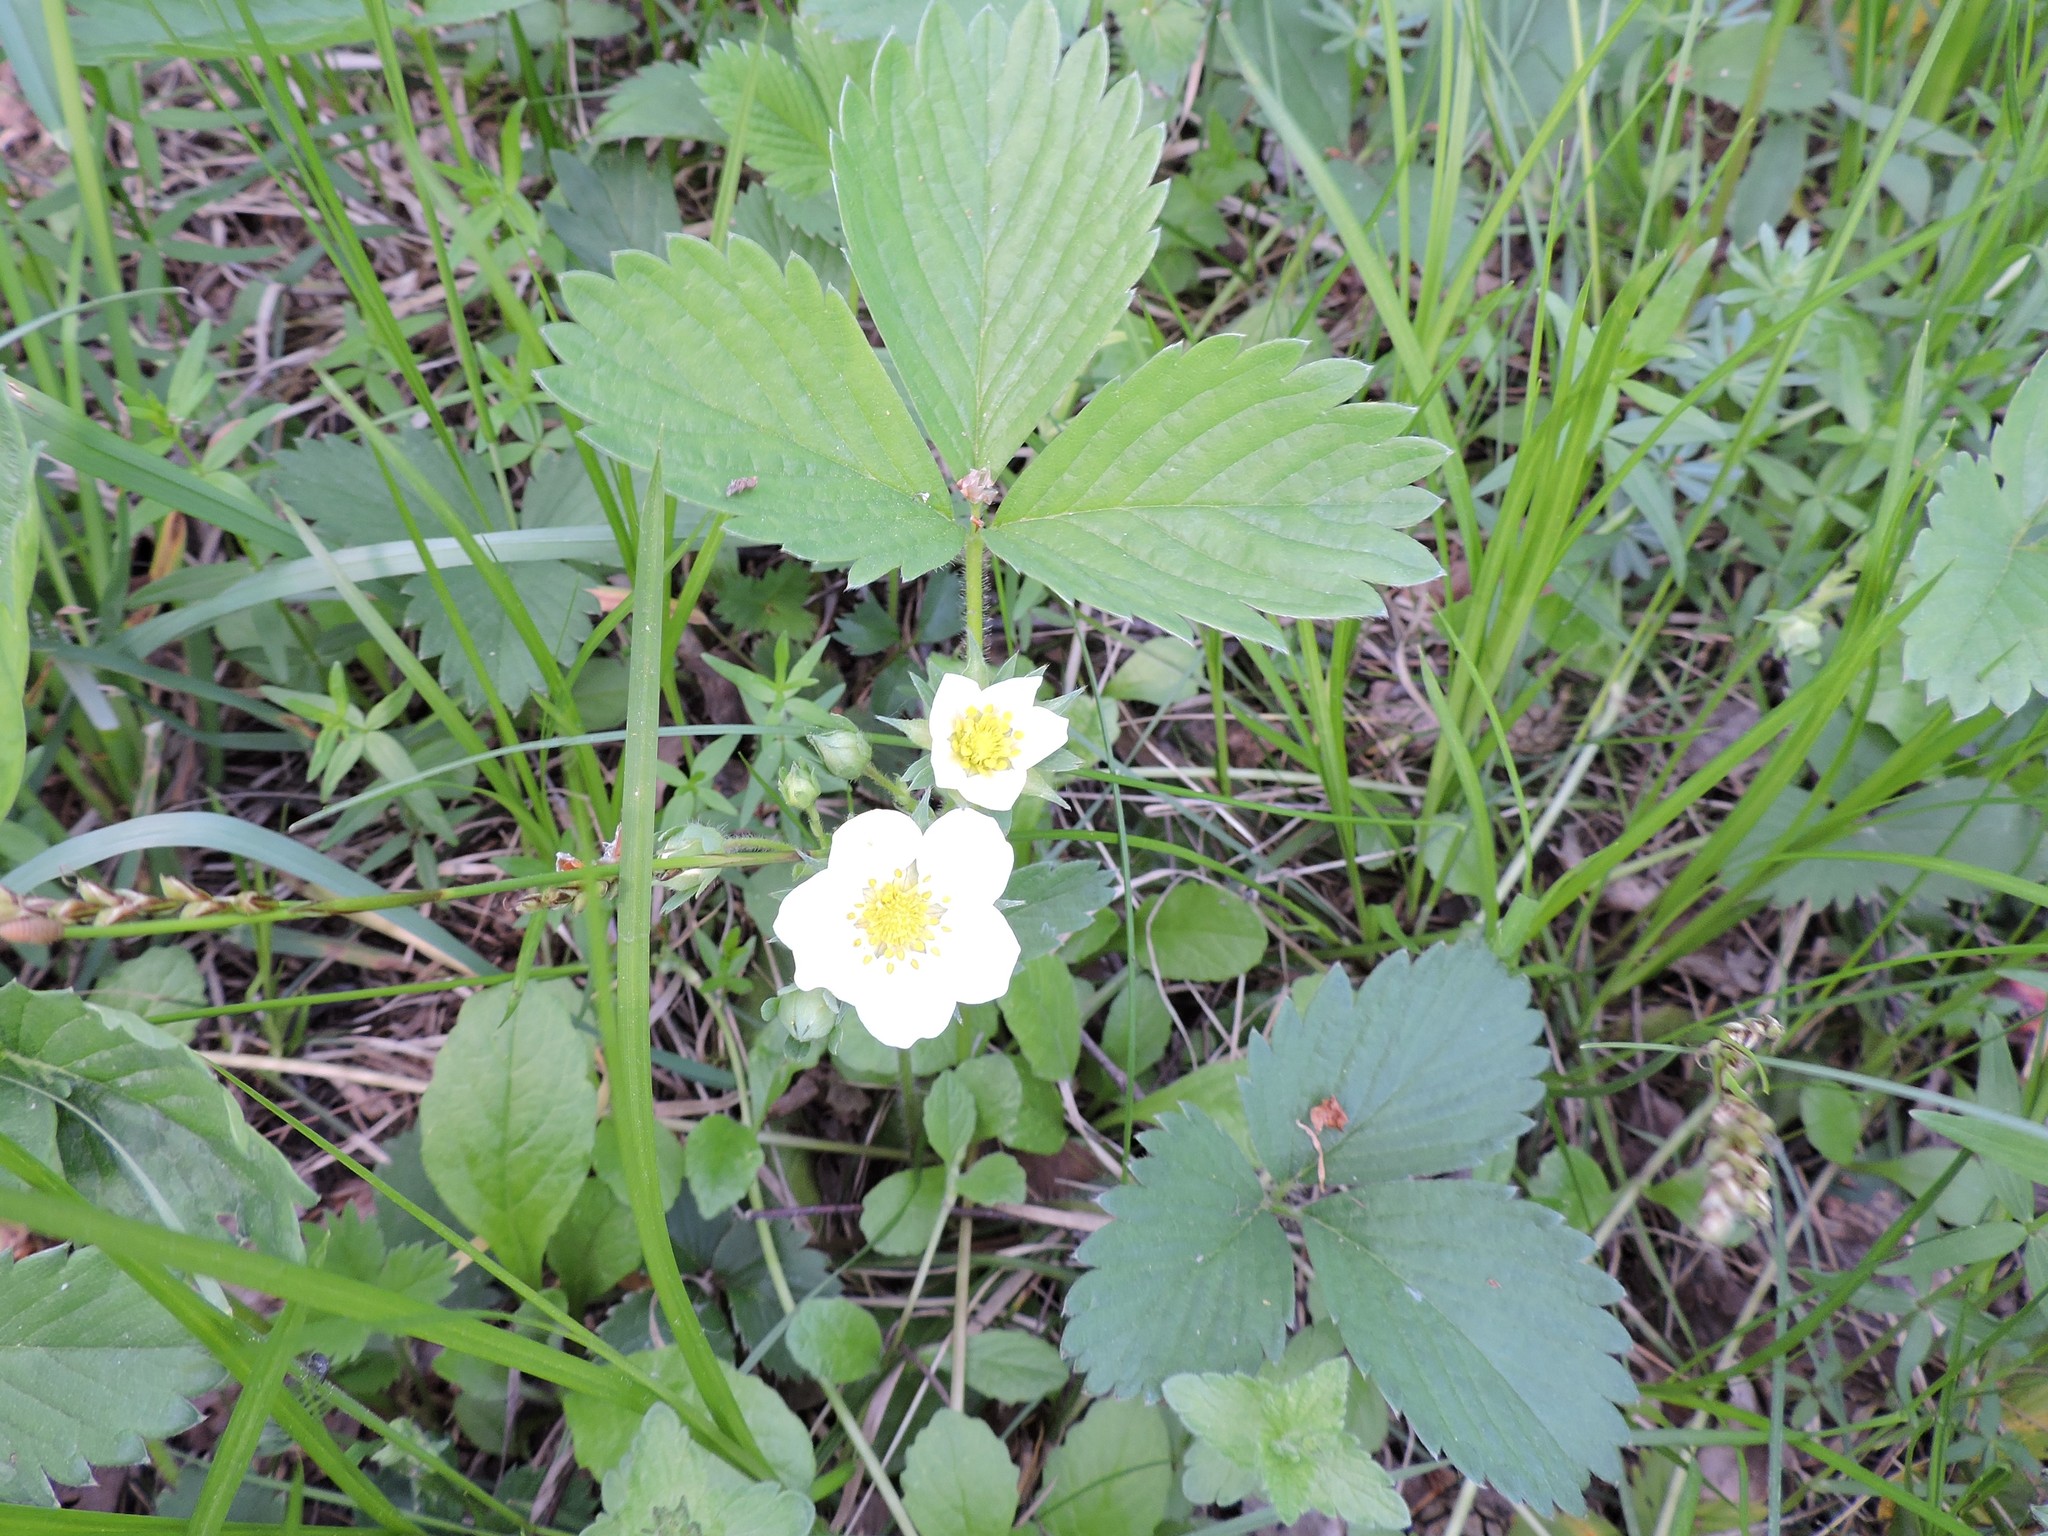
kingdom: Plantae
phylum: Tracheophyta
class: Magnoliopsida
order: Rosales
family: Rosaceae
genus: Fragaria
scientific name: Fragaria ananassa
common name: Garden strawberry
